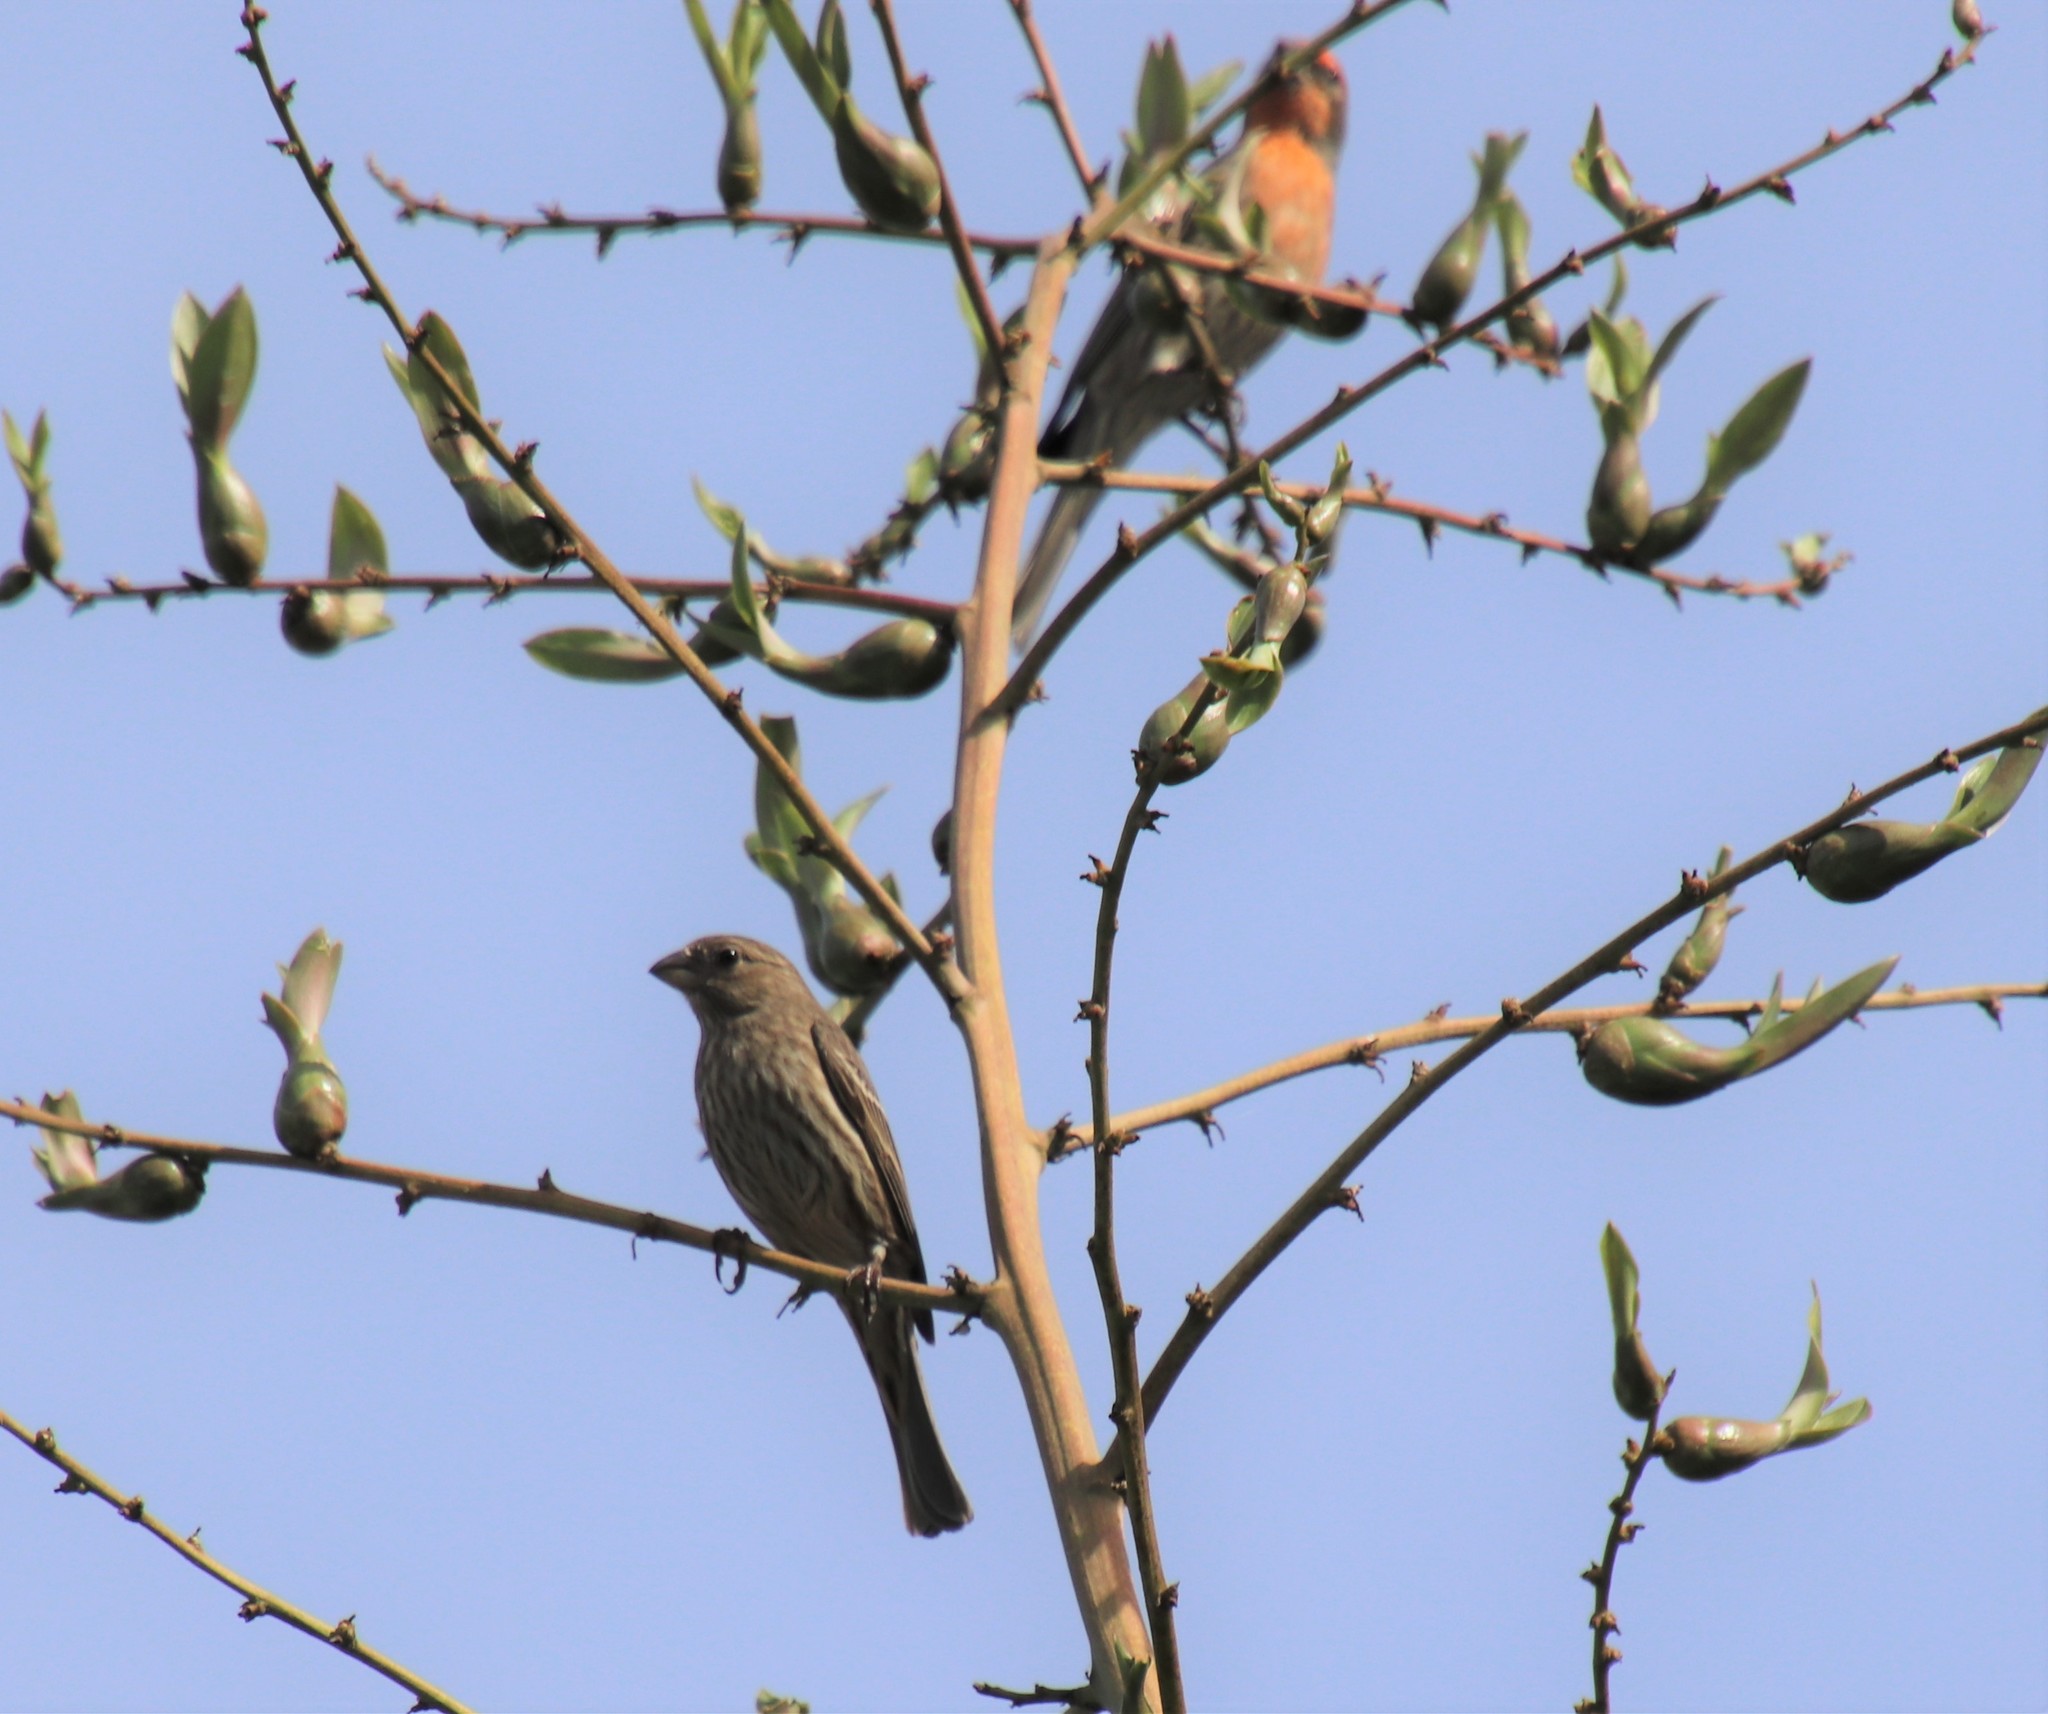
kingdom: Animalia
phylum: Chordata
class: Aves
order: Passeriformes
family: Fringillidae
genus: Haemorhous
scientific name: Haemorhous mexicanus
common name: House finch
